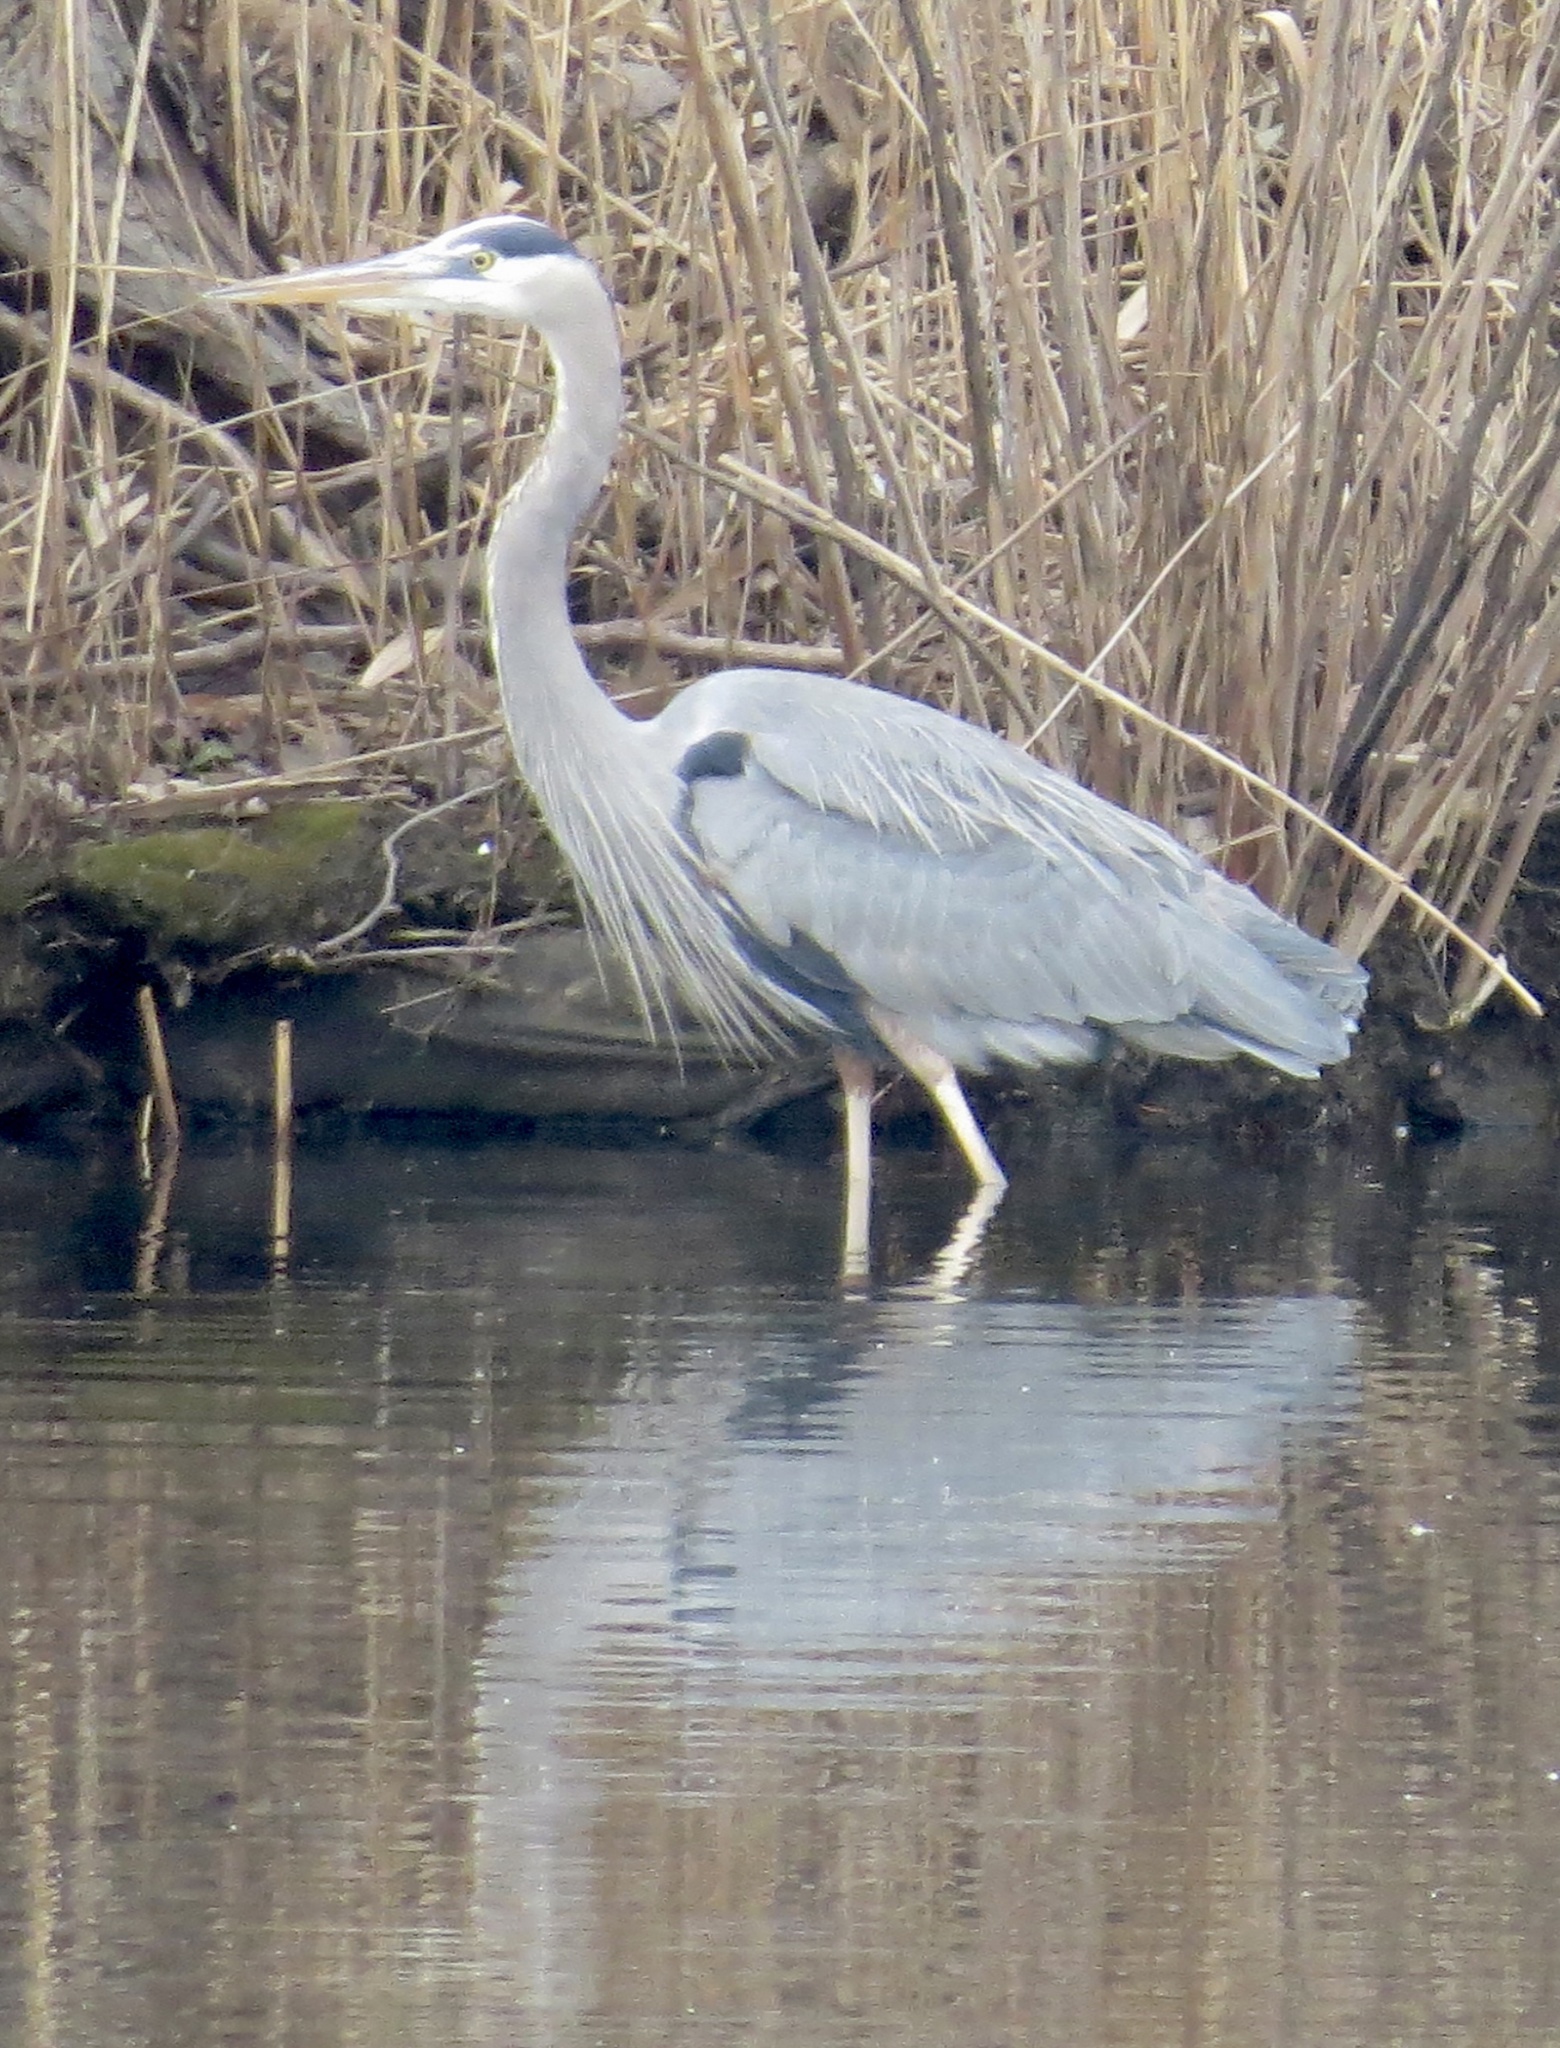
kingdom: Animalia
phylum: Chordata
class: Aves
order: Pelecaniformes
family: Ardeidae
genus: Ardea
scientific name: Ardea herodias
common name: Great blue heron
